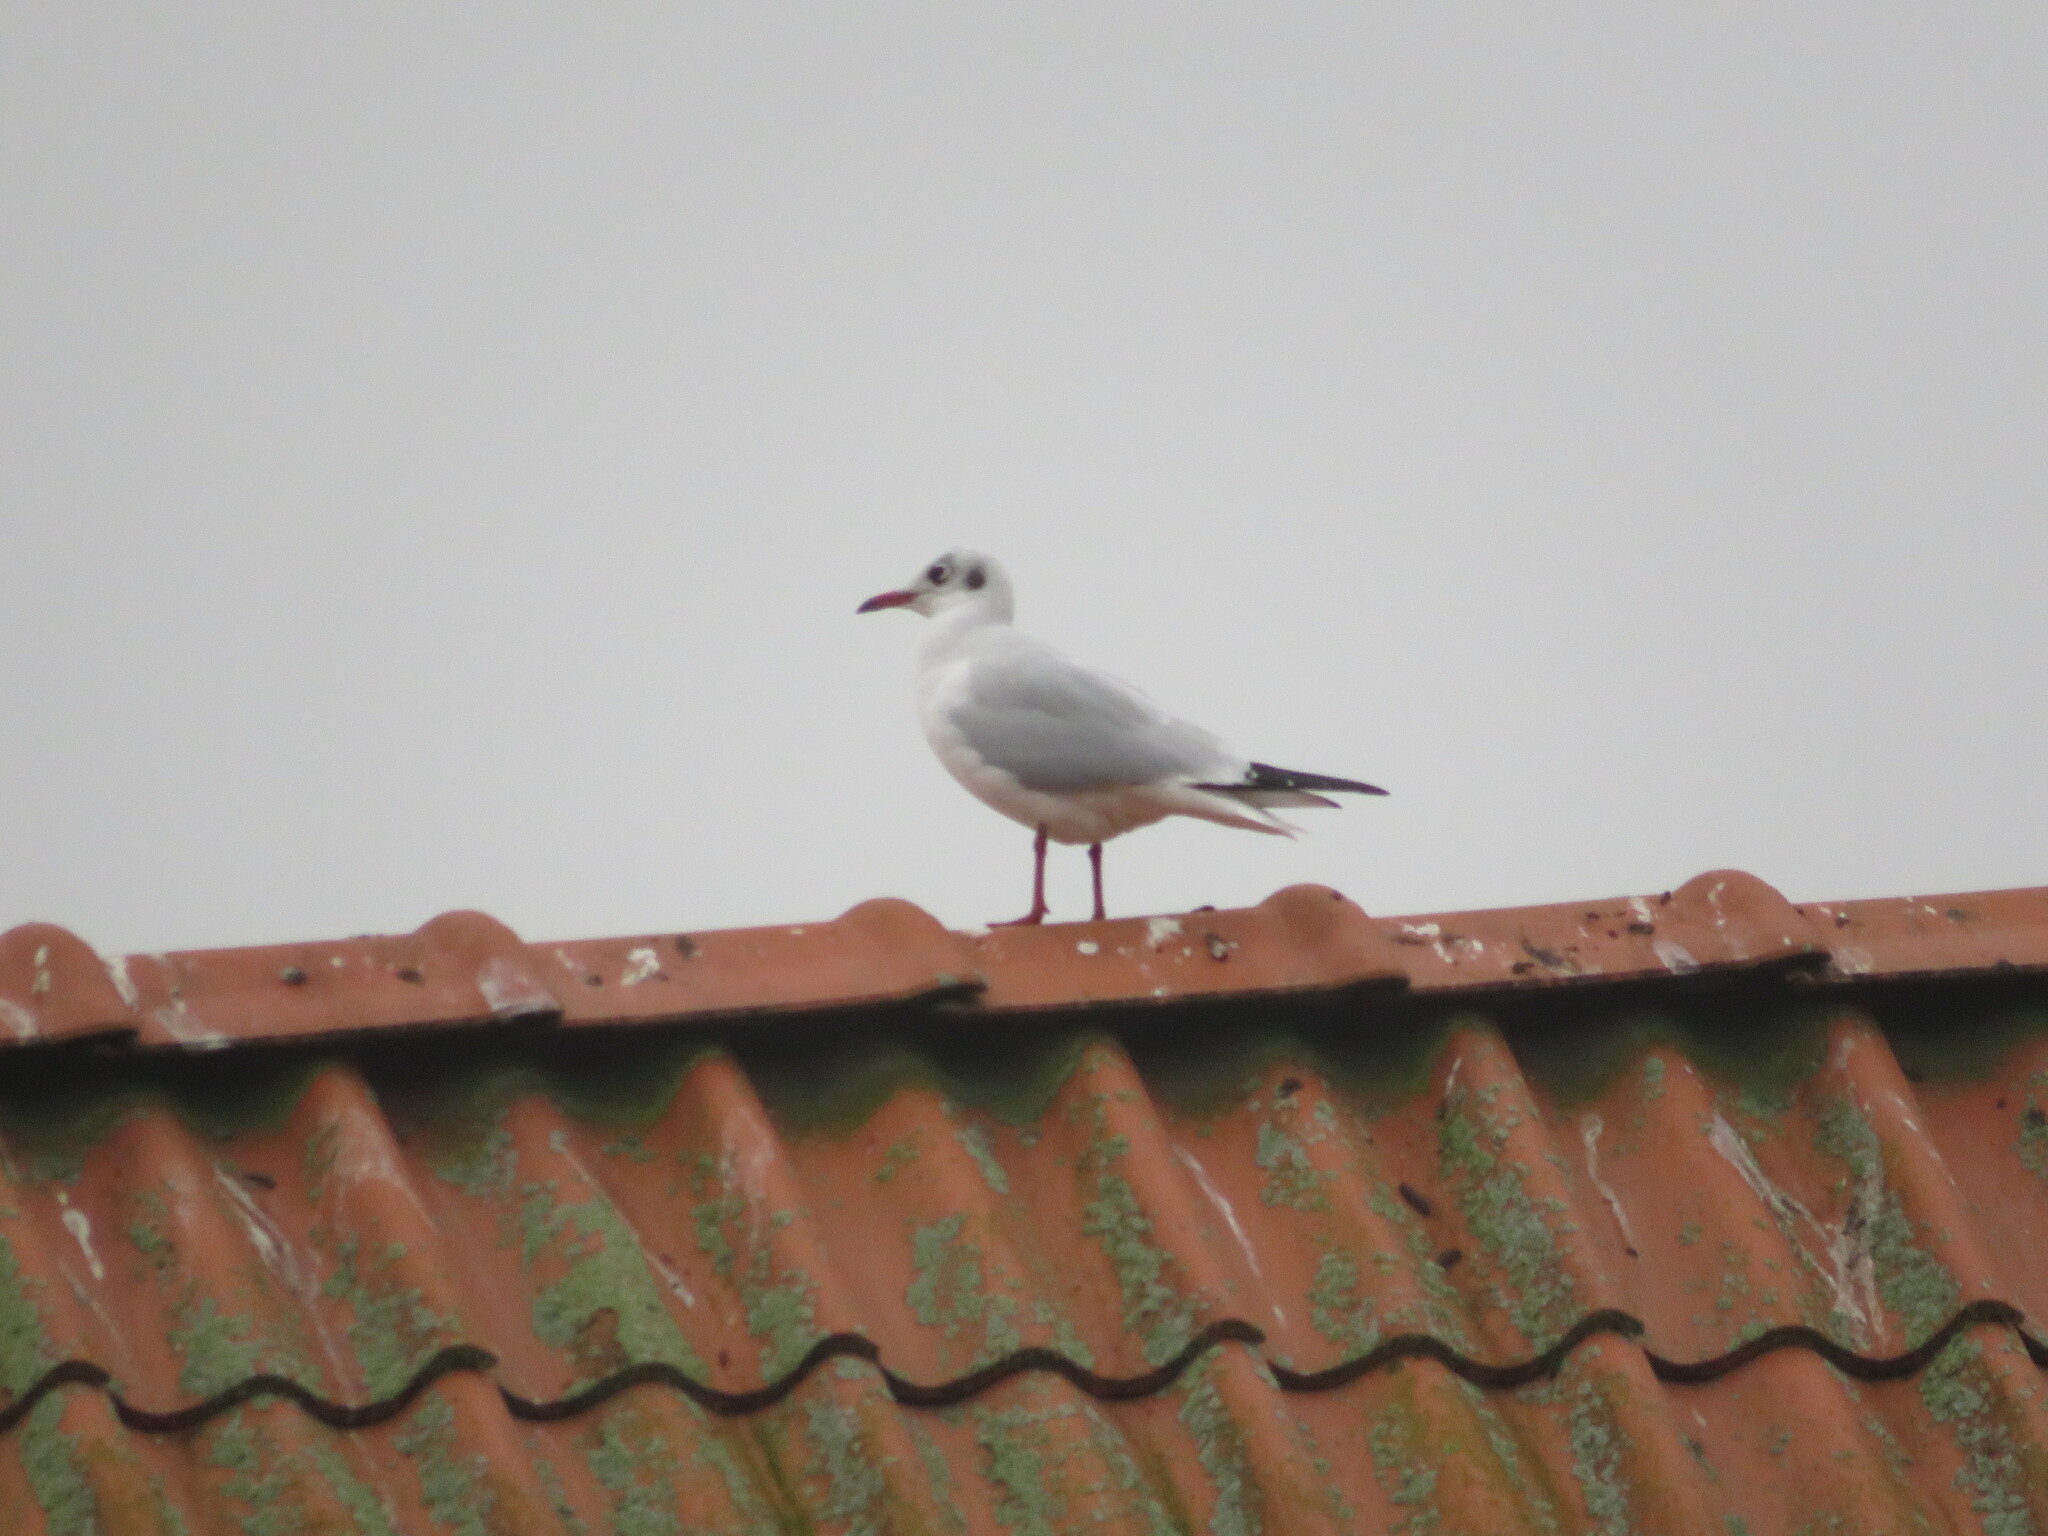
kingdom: Animalia
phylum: Chordata
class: Aves
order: Charadriiformes
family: Laridae
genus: Chroicocephalus
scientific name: Chroicocephalus ridibundus
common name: Black-headed gull
